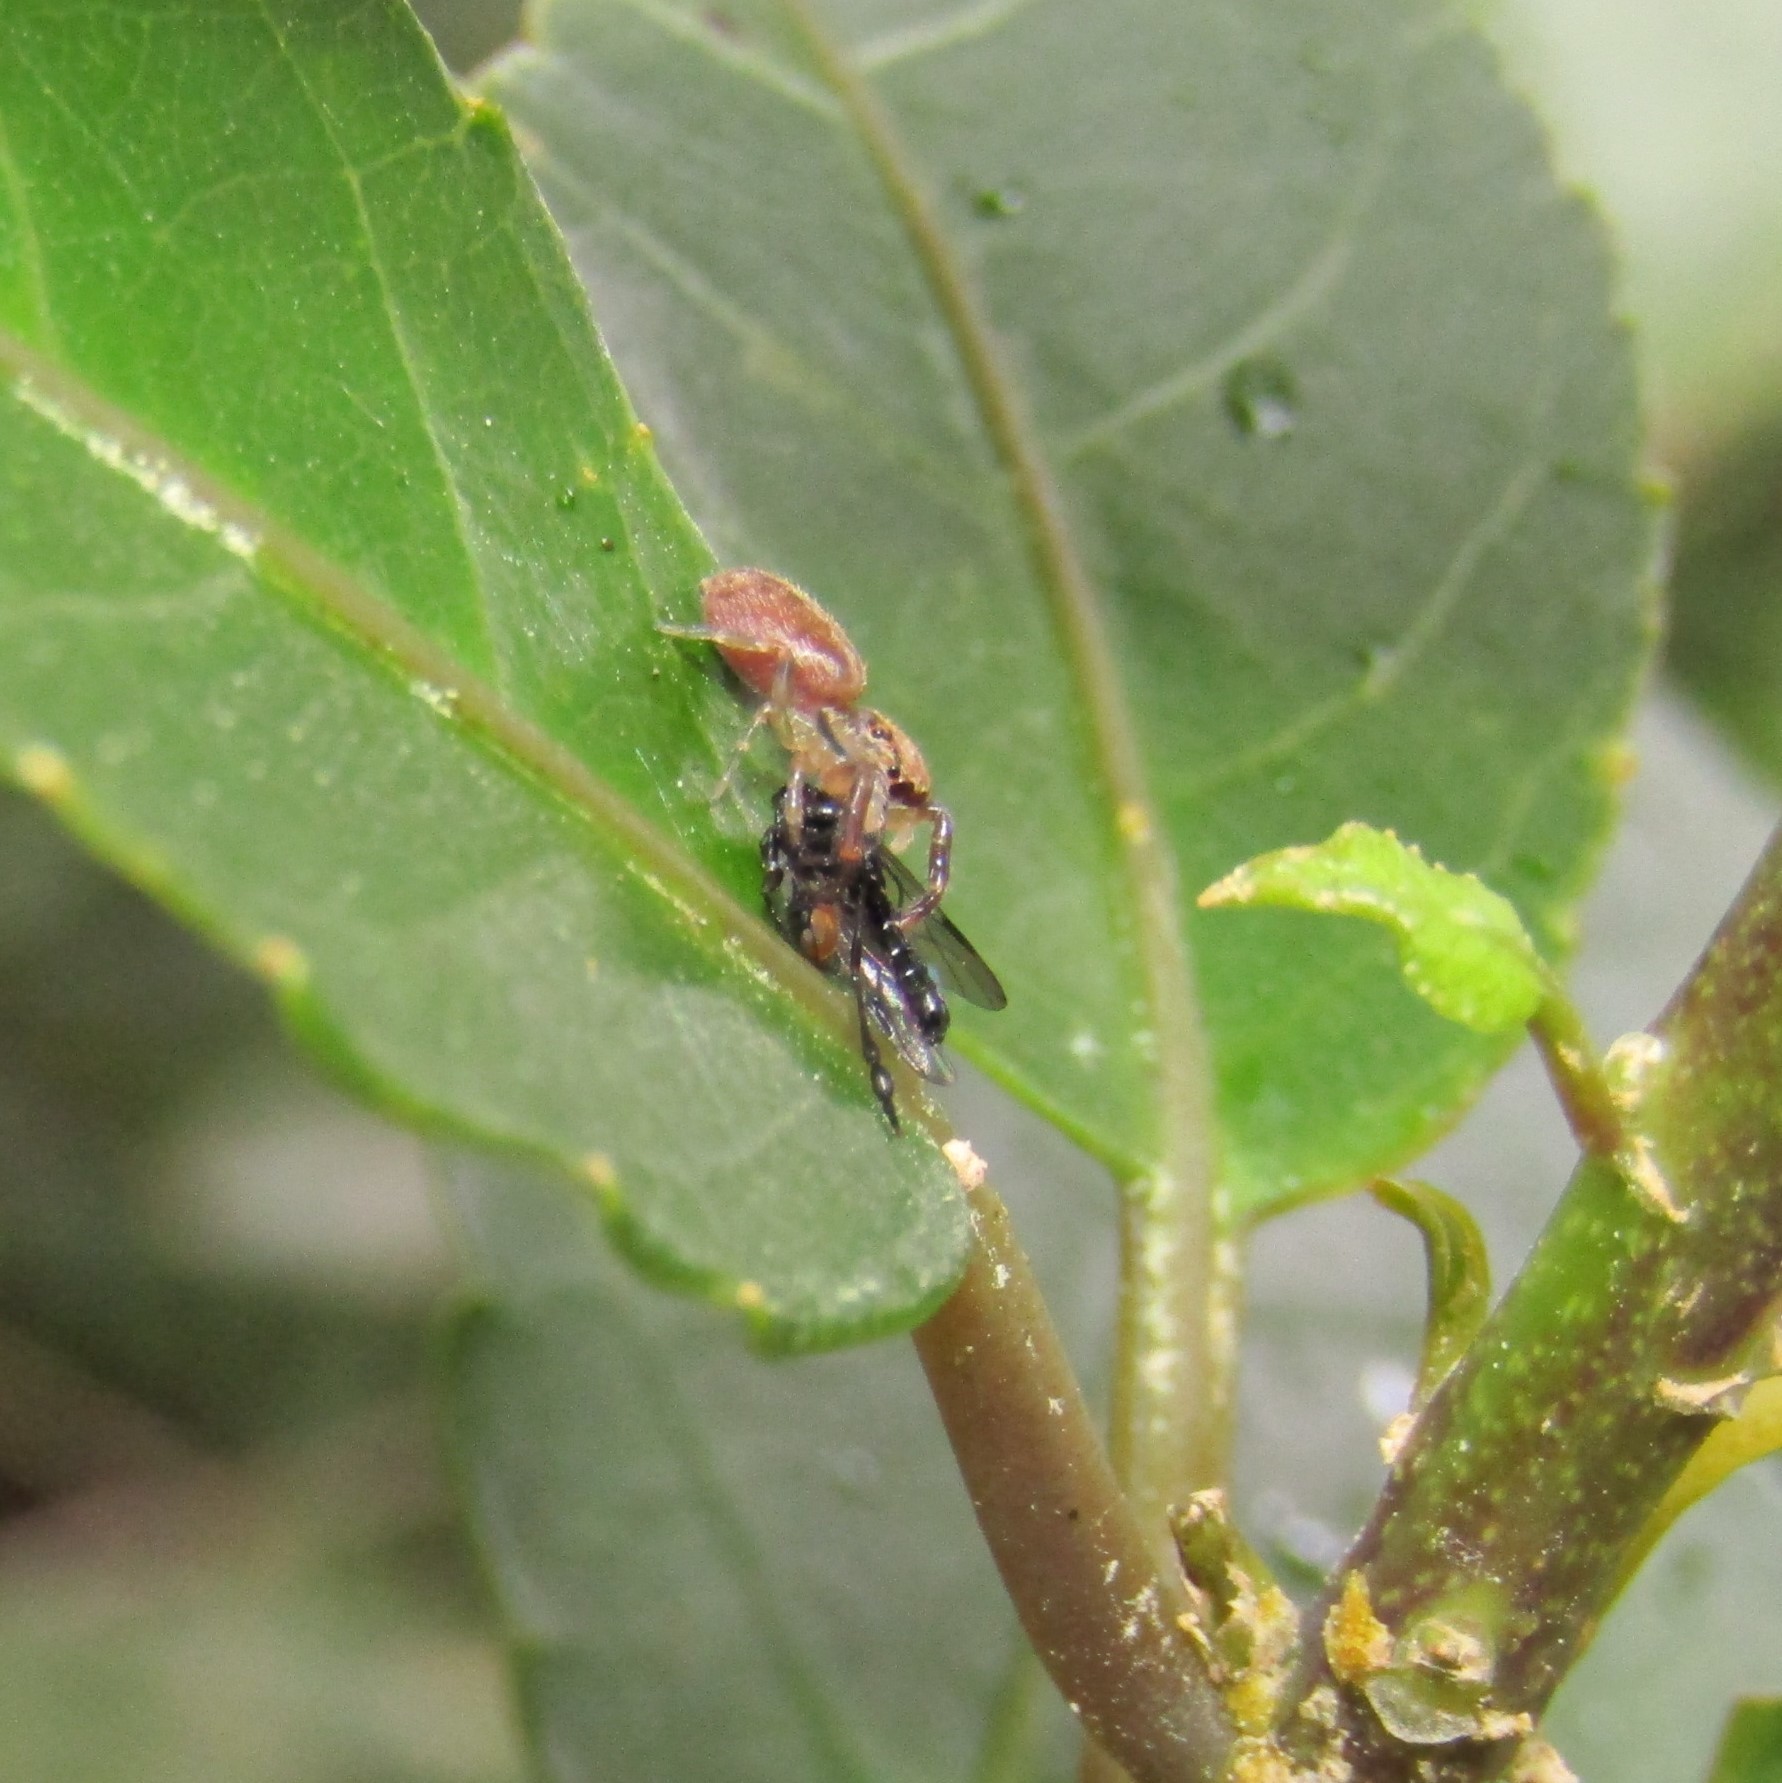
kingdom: Animalia
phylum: Arthropoda
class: Insecta
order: Diptera
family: Bibionidae
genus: Dilophus
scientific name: Dilophus segnis
